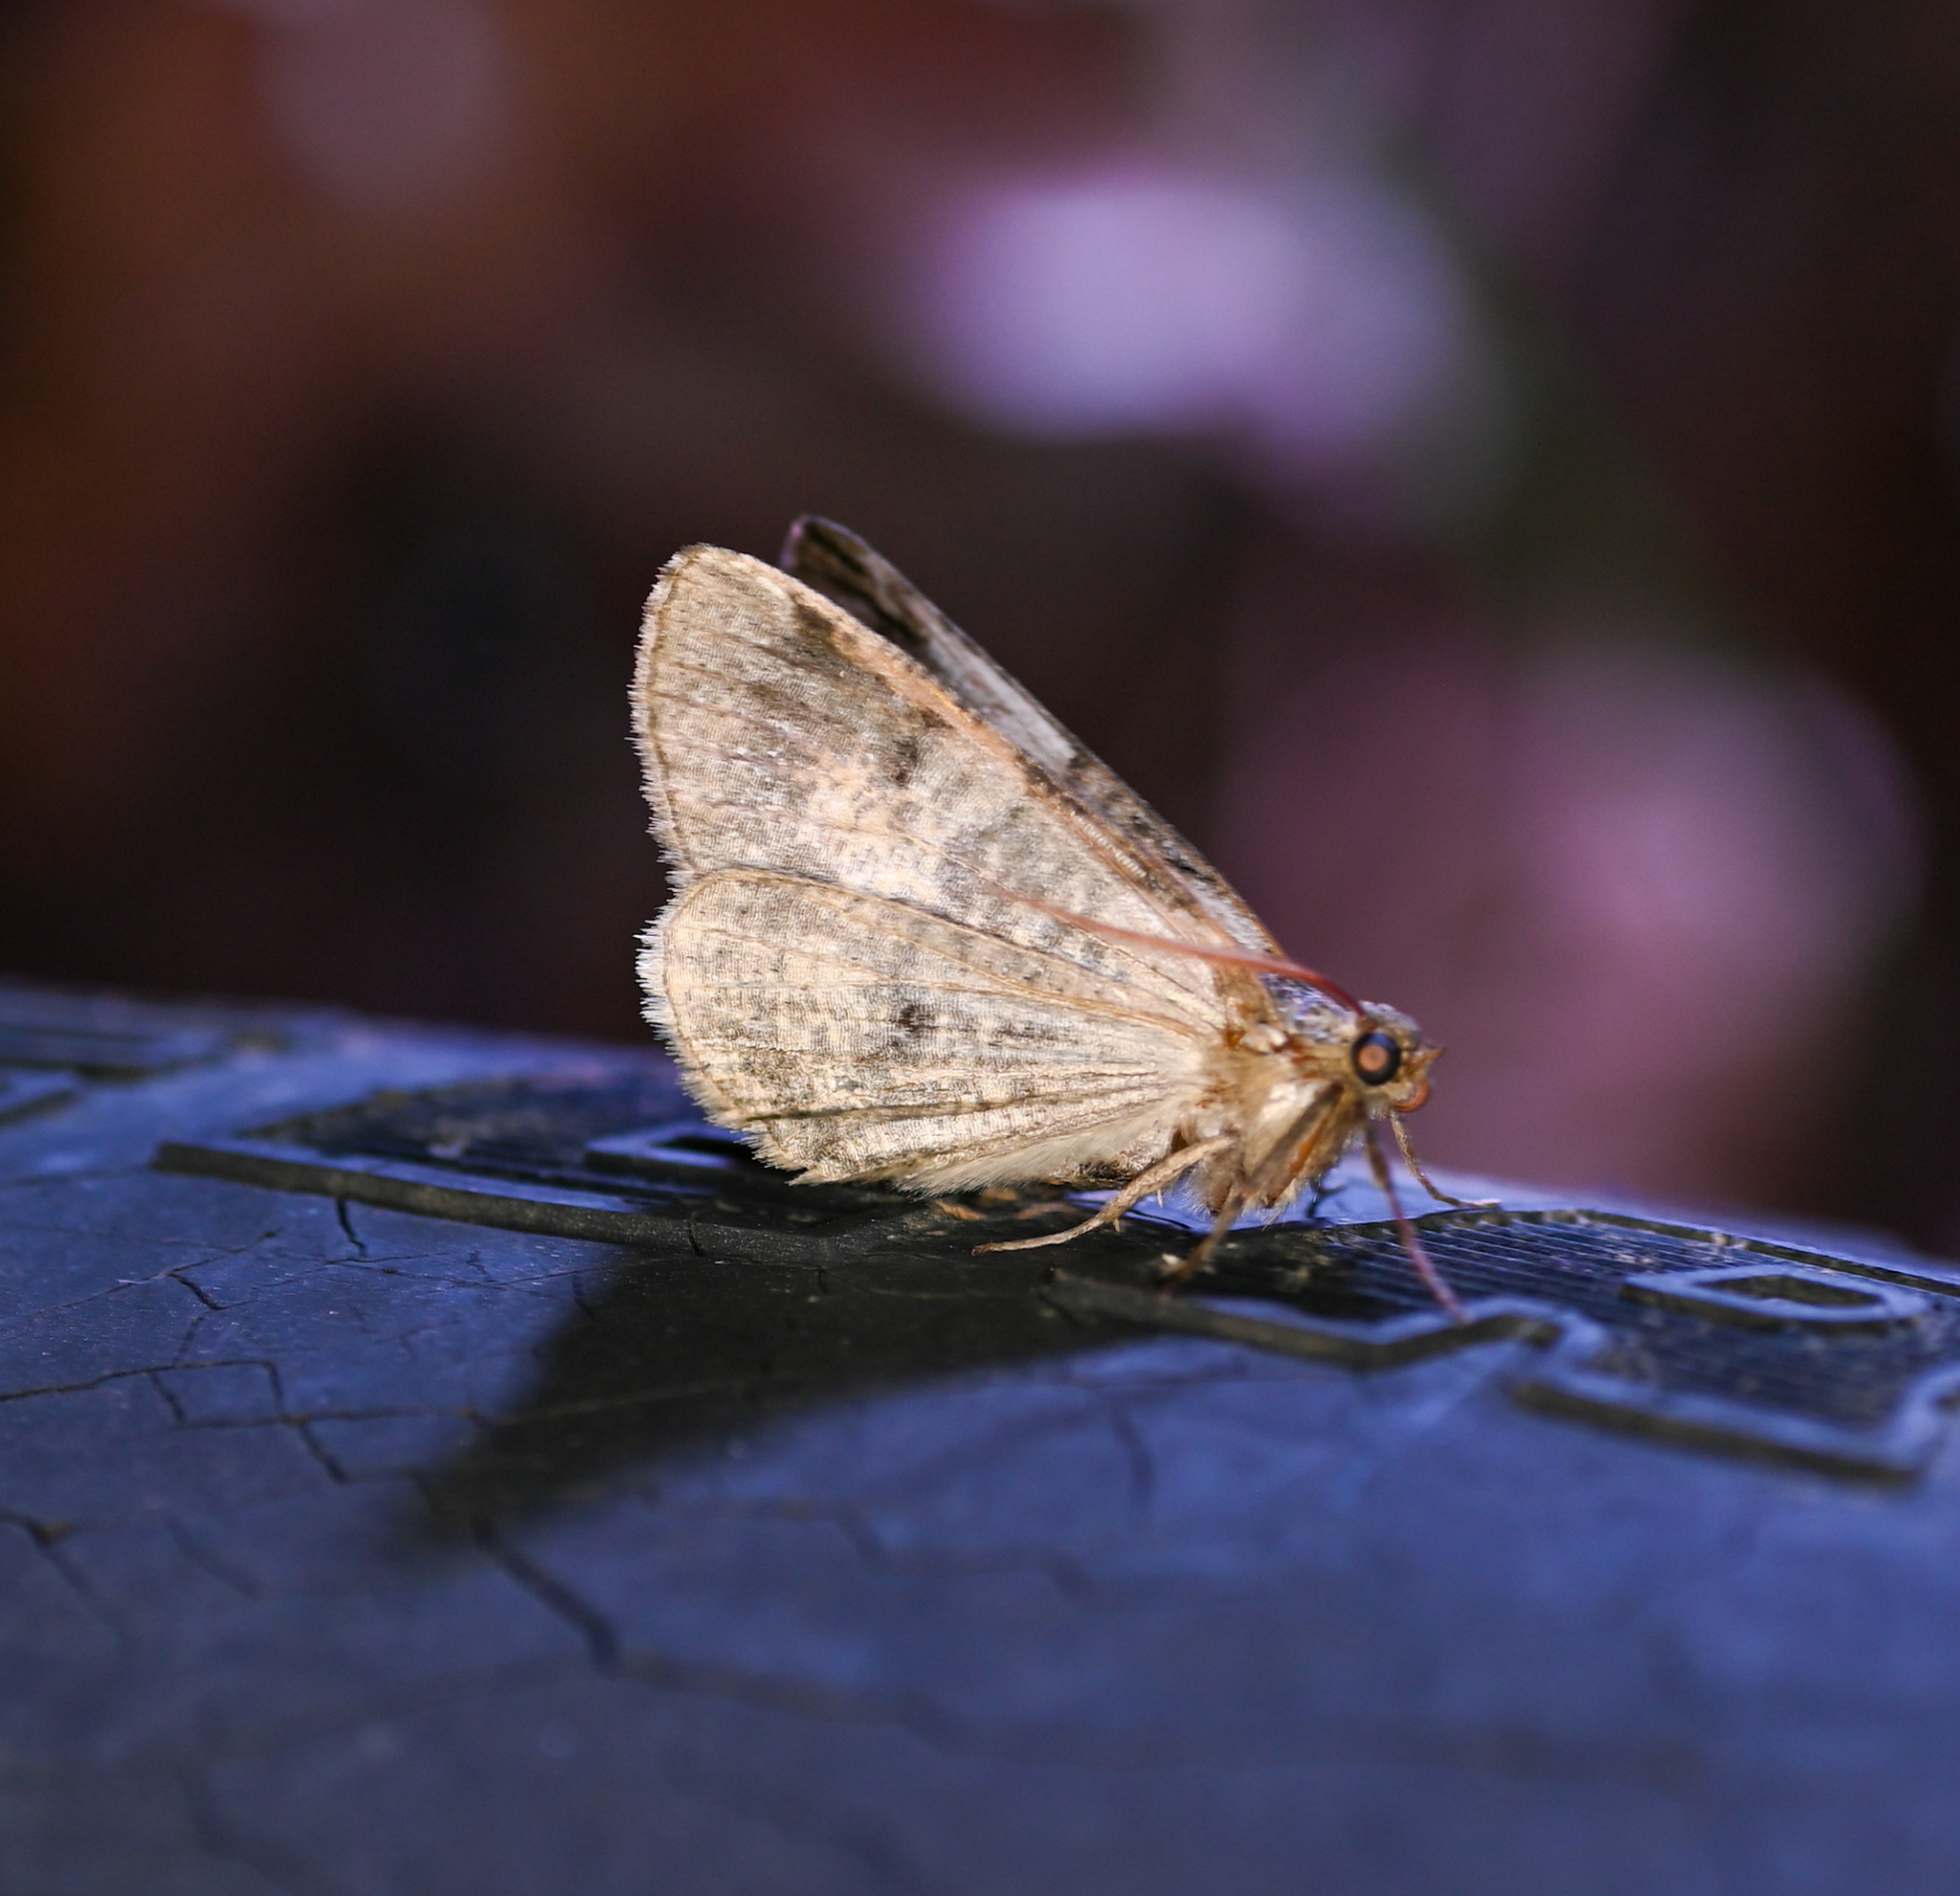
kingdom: Animalia
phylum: Arthropoda
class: Insecta
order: Lepidoptera
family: Geometridae
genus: Ceratonyx
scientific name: Ceratonyx satanaria
